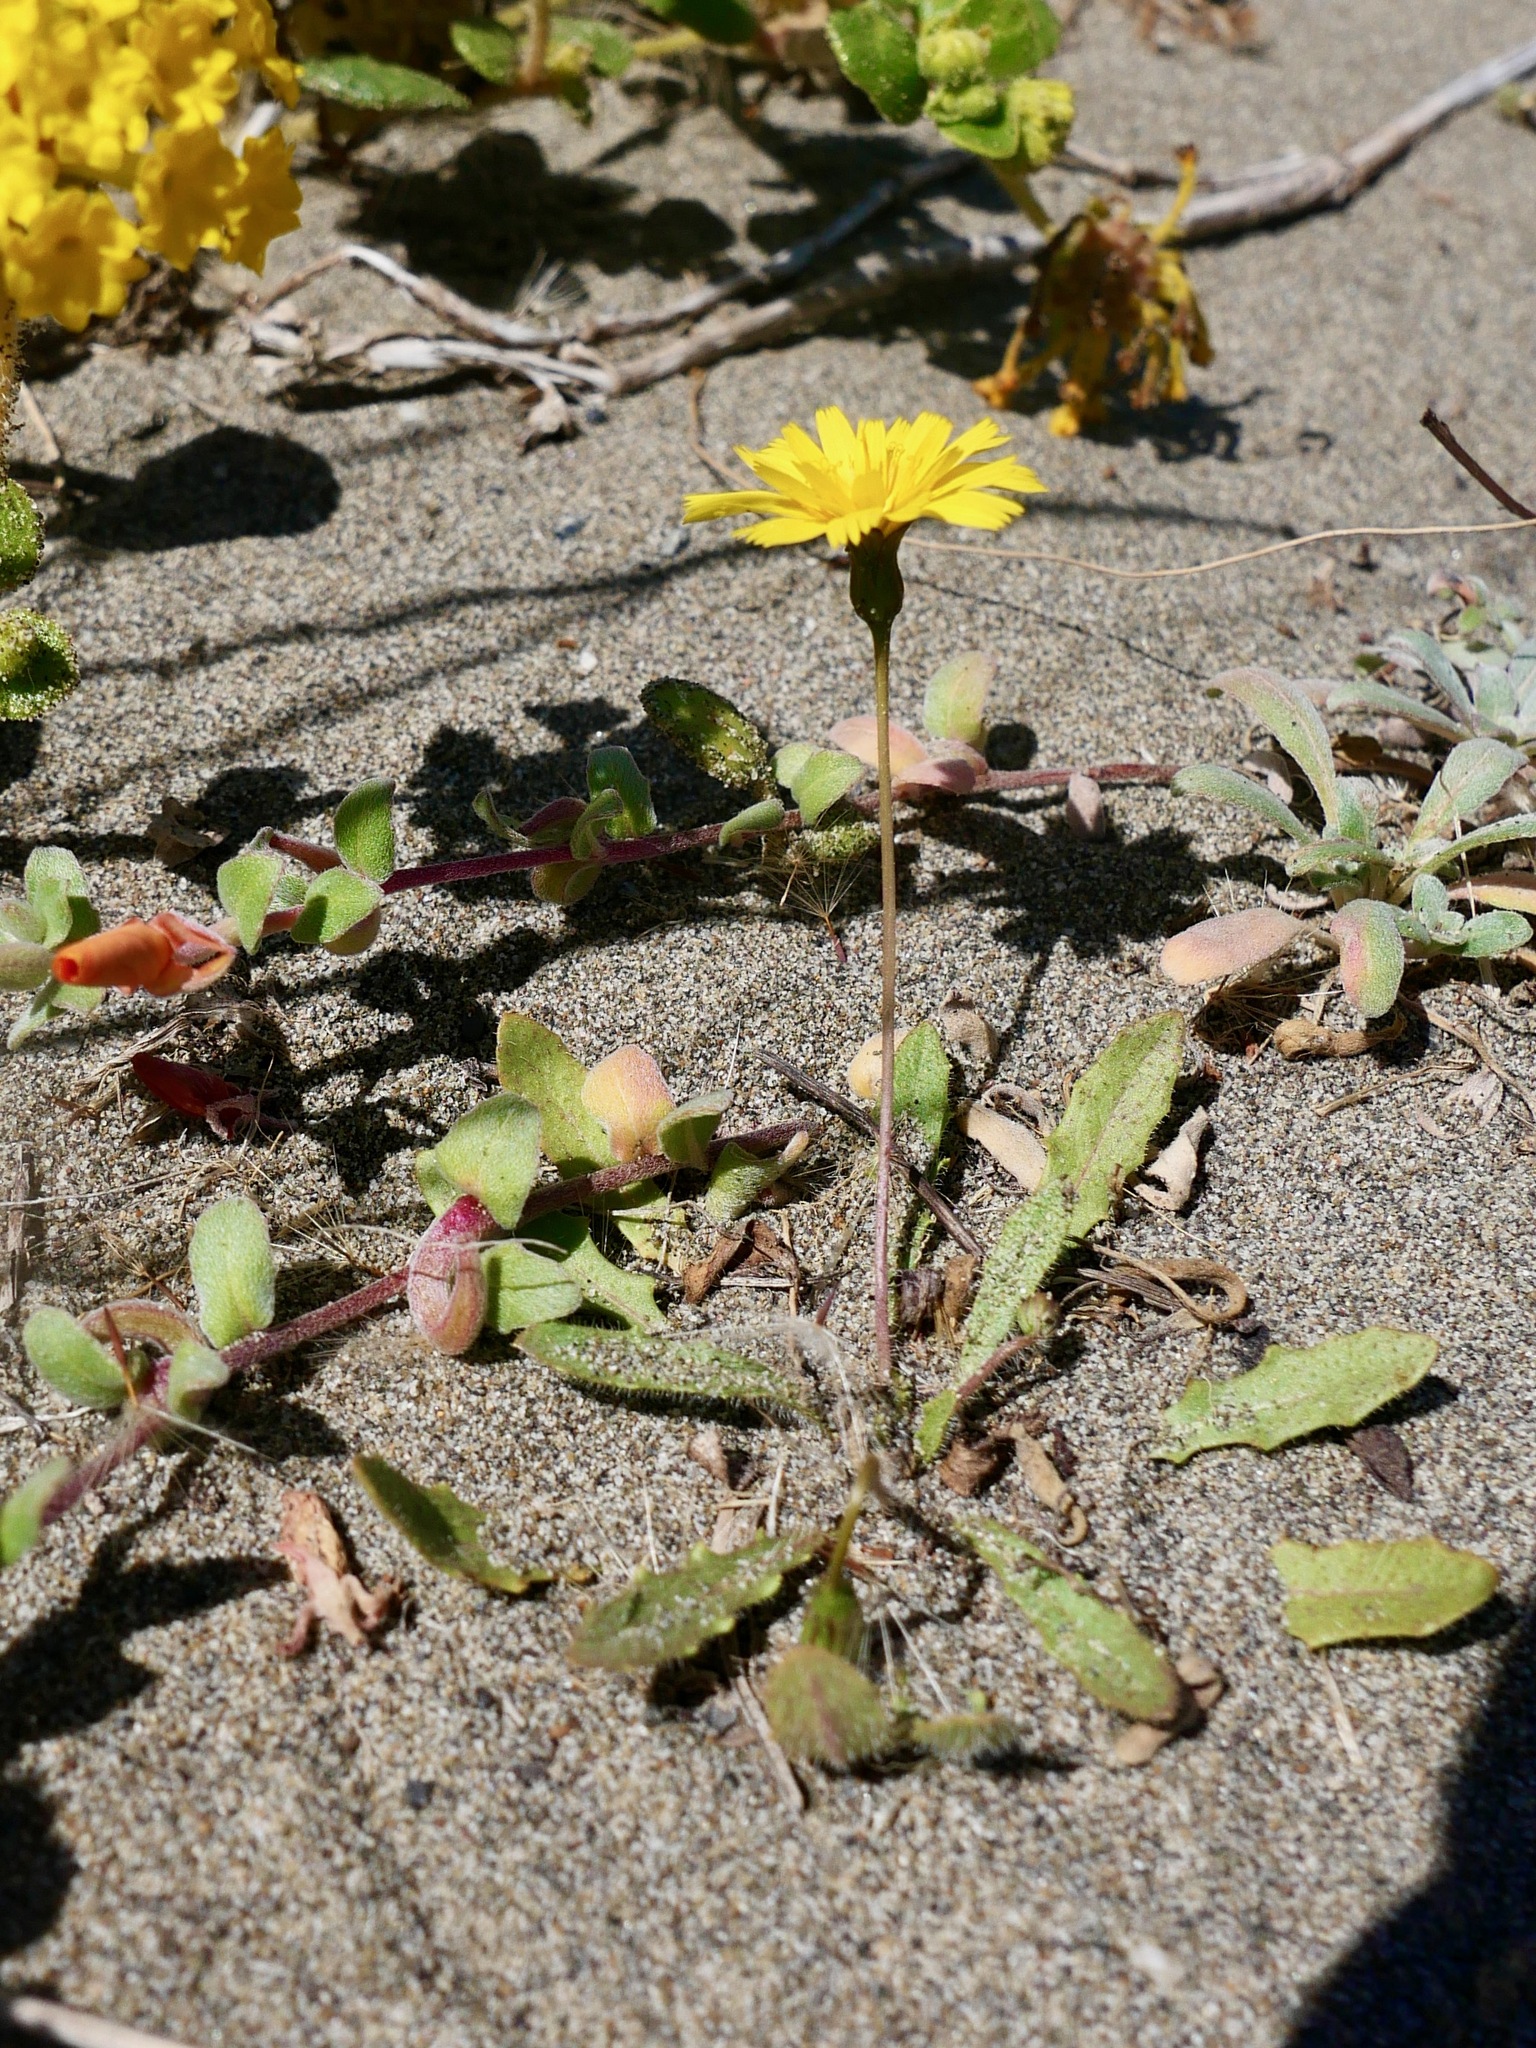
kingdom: Plantae
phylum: Tracheophyta
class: Magnoliopsida
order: Asterales
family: Asteraceae
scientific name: Asteraceae
